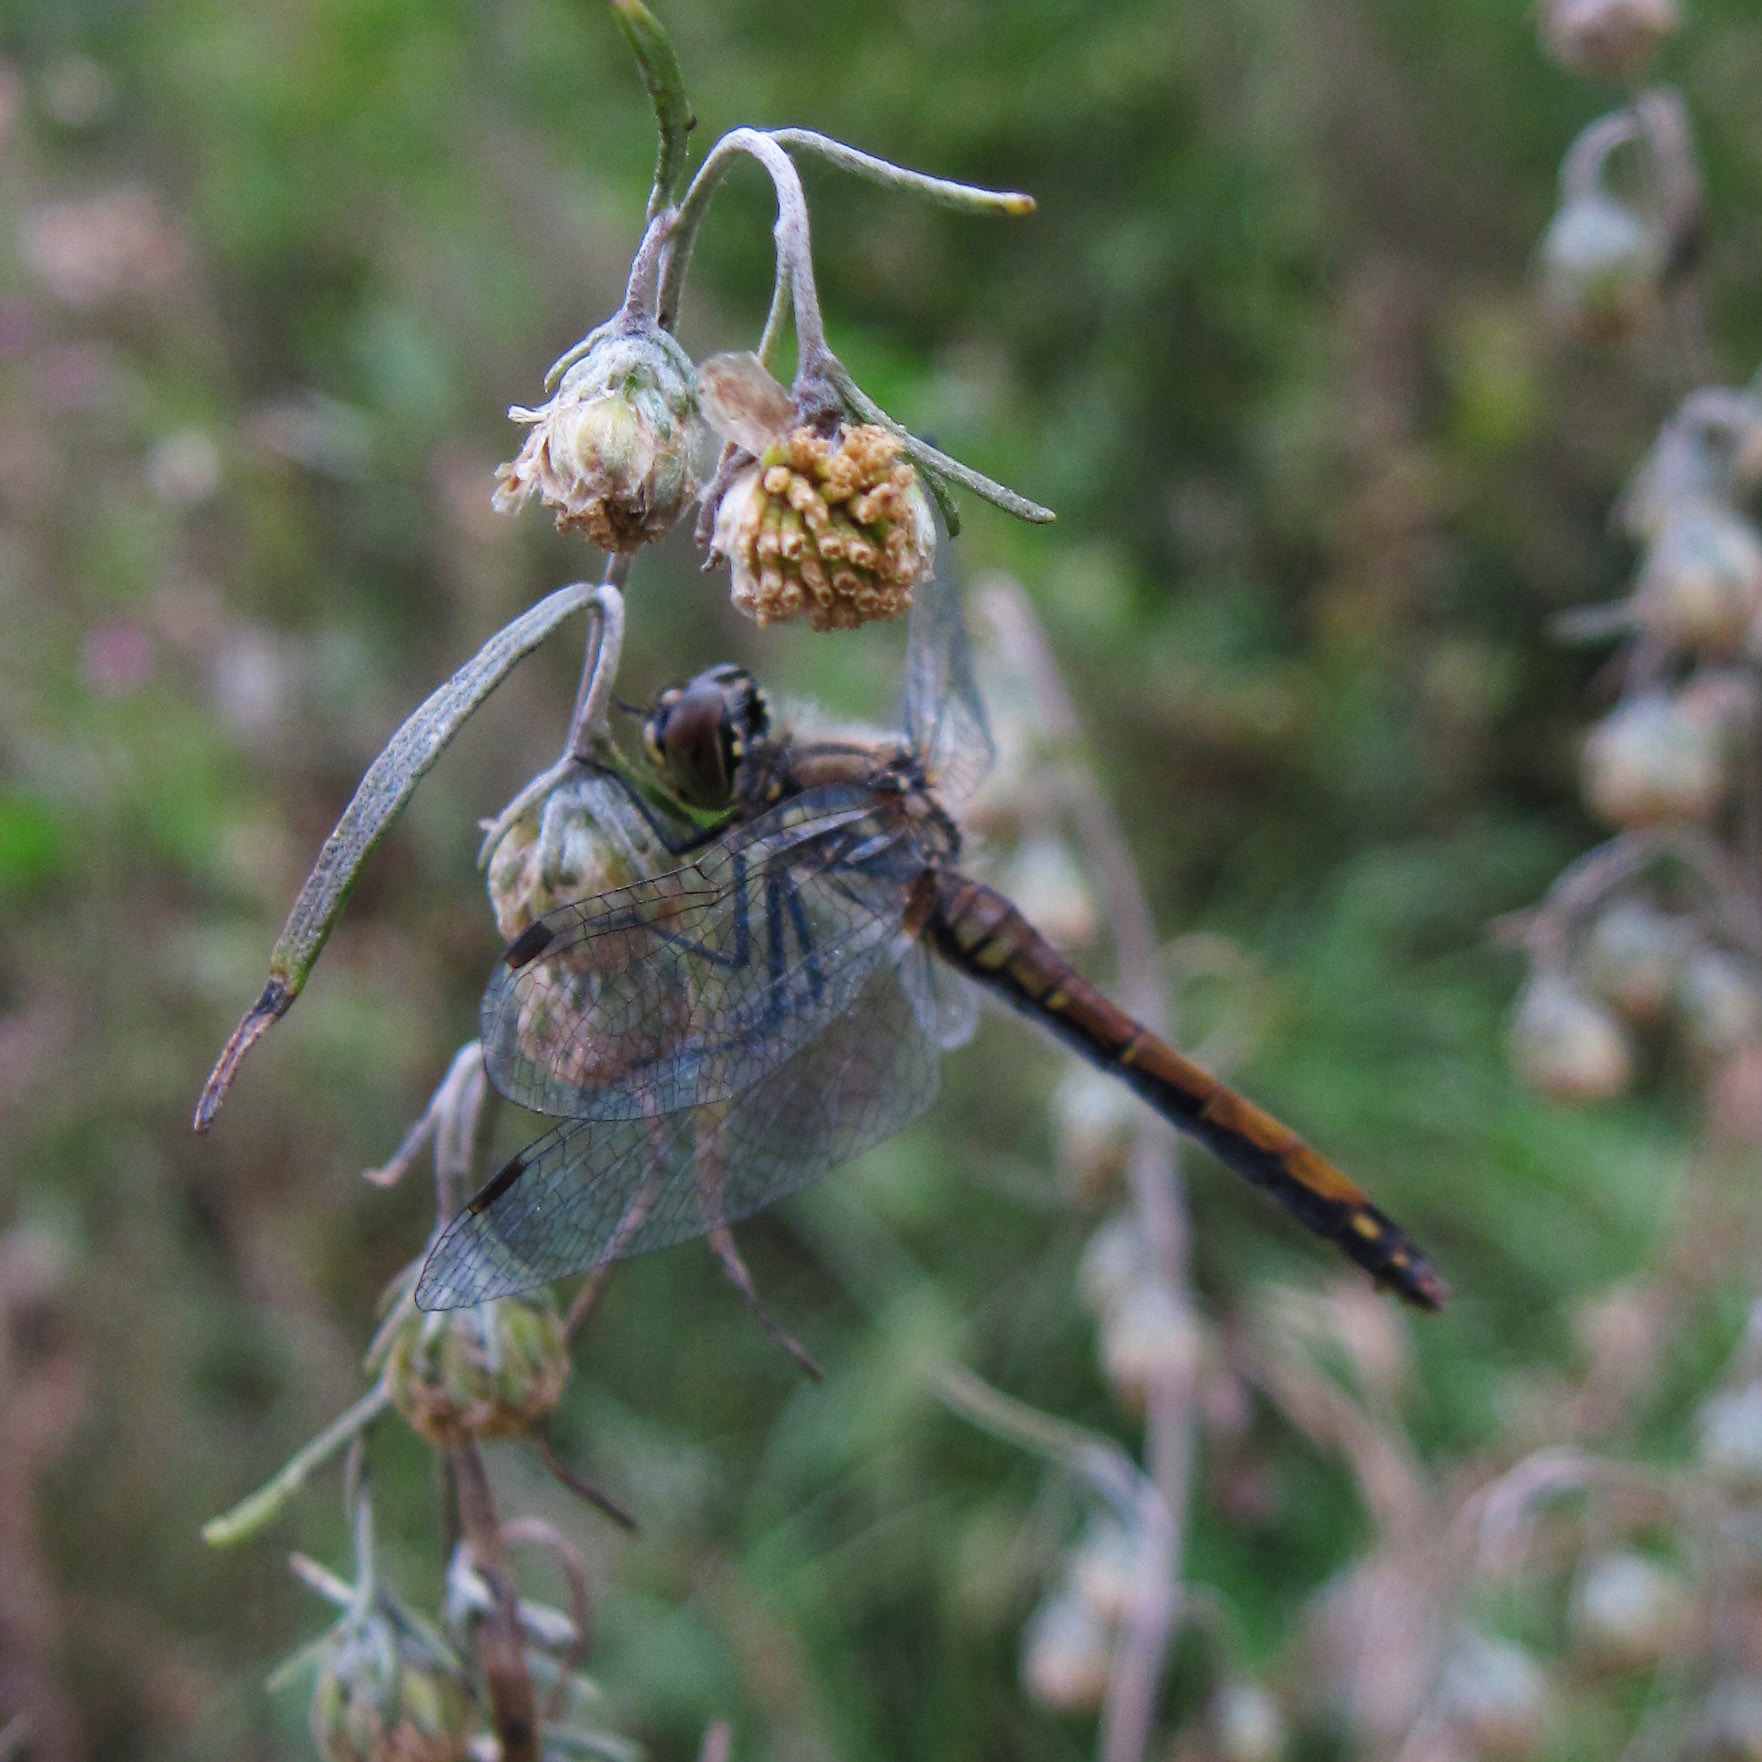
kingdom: Animalia
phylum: Arthropoda
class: Insecta
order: Odonata
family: Libellulidae
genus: Sympetrum
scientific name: Sympetrum danae
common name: Black darter
